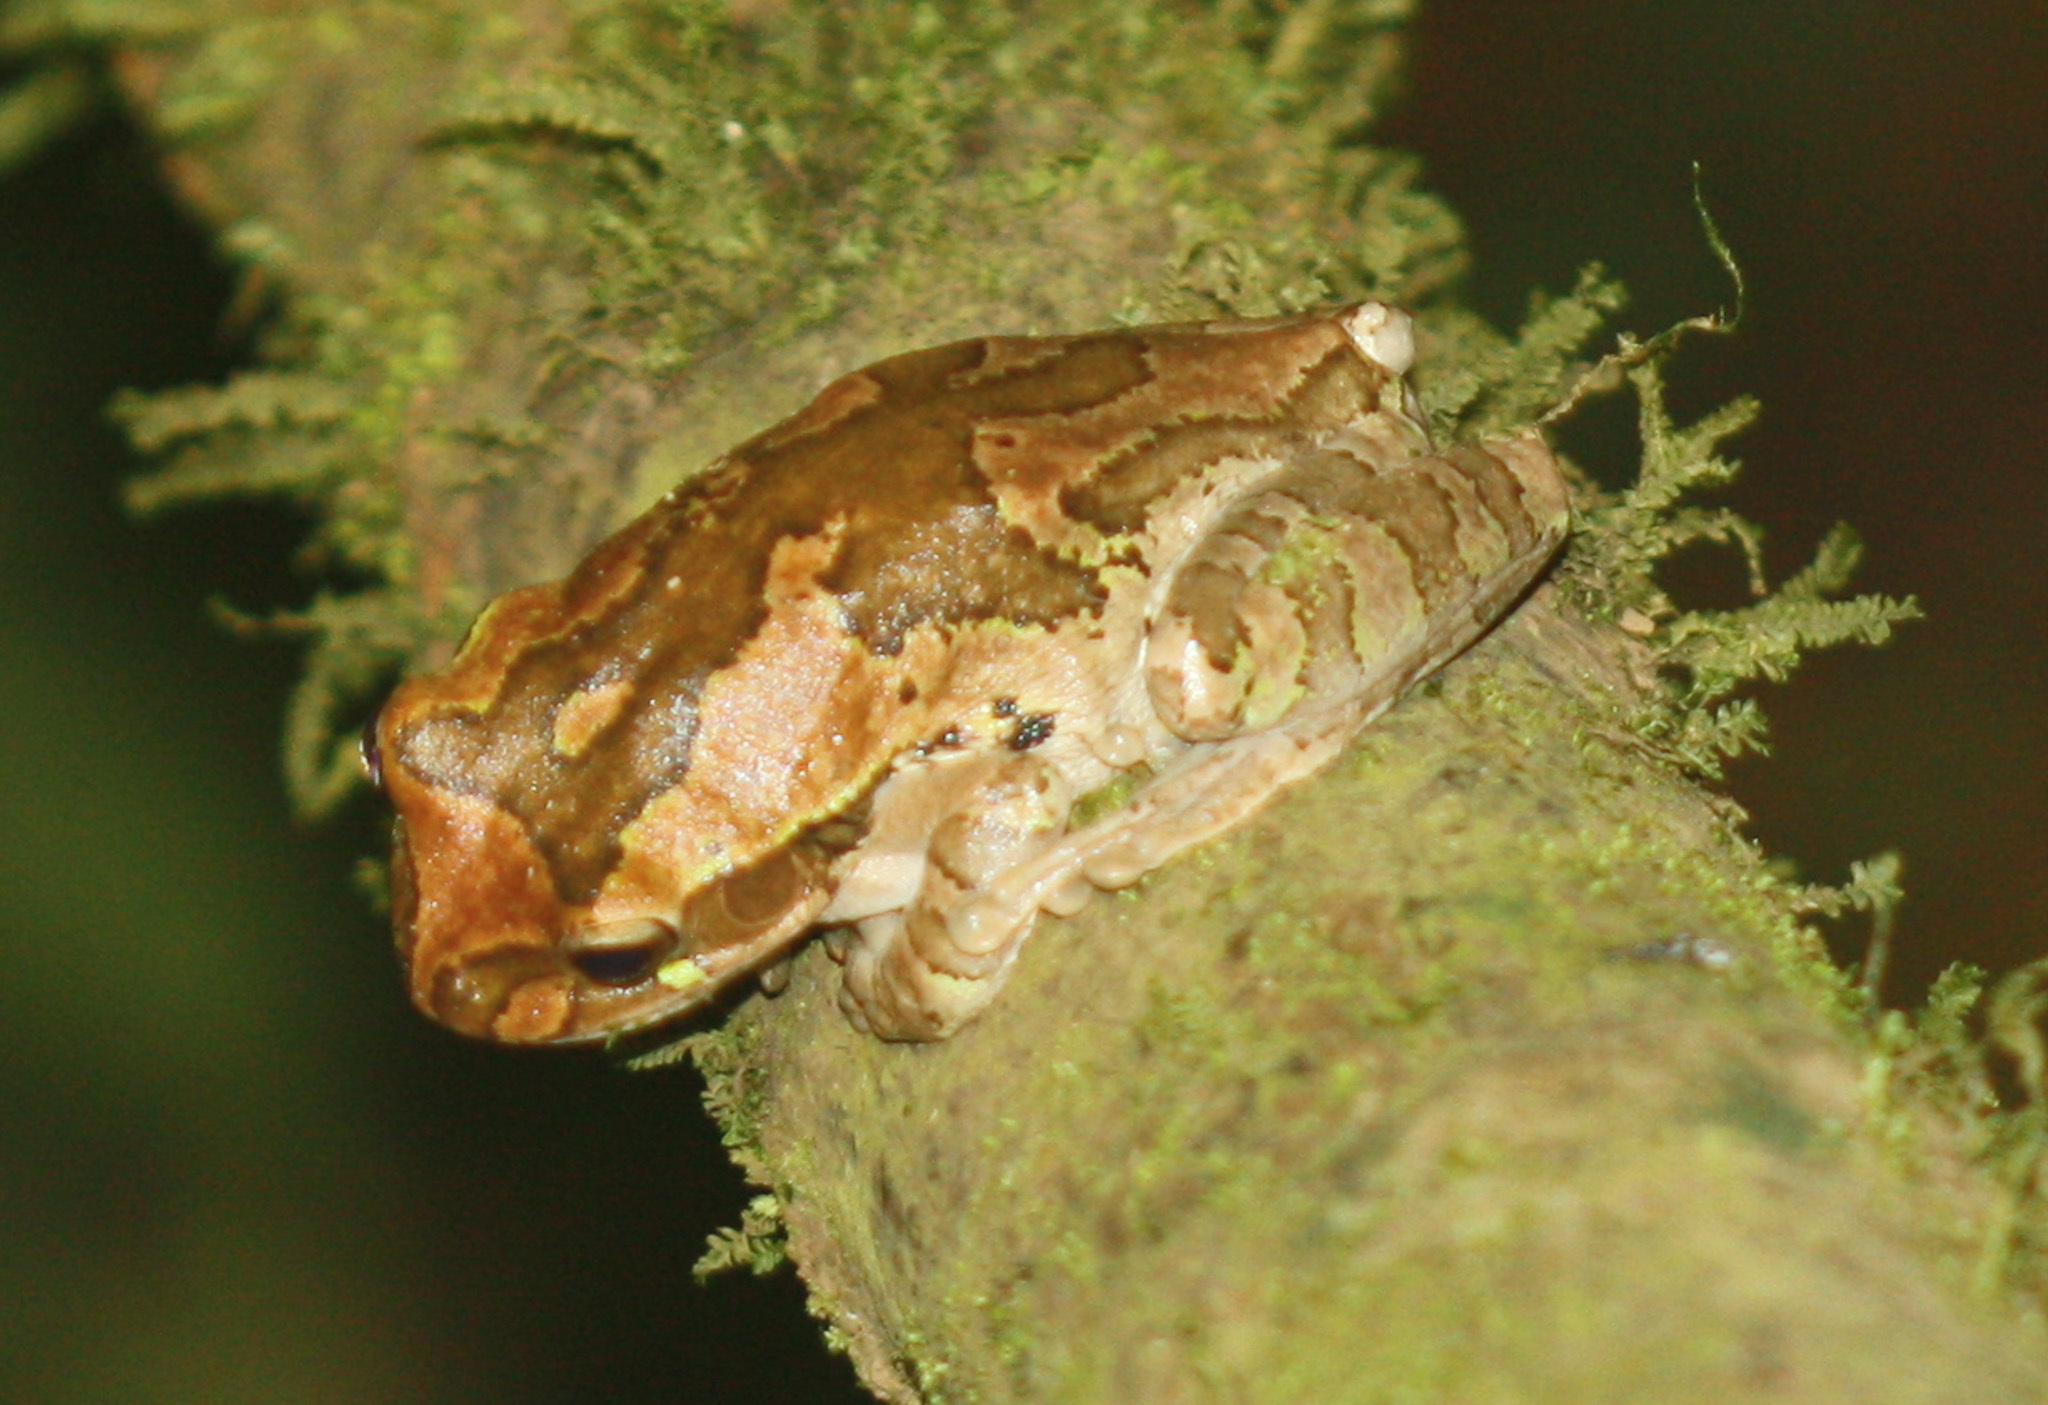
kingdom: Animalia
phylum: Chordata
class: Amphibia
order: Anura
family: Hylidae
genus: Smilisca
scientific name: Smilisca manisorum
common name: Masked tree frog
